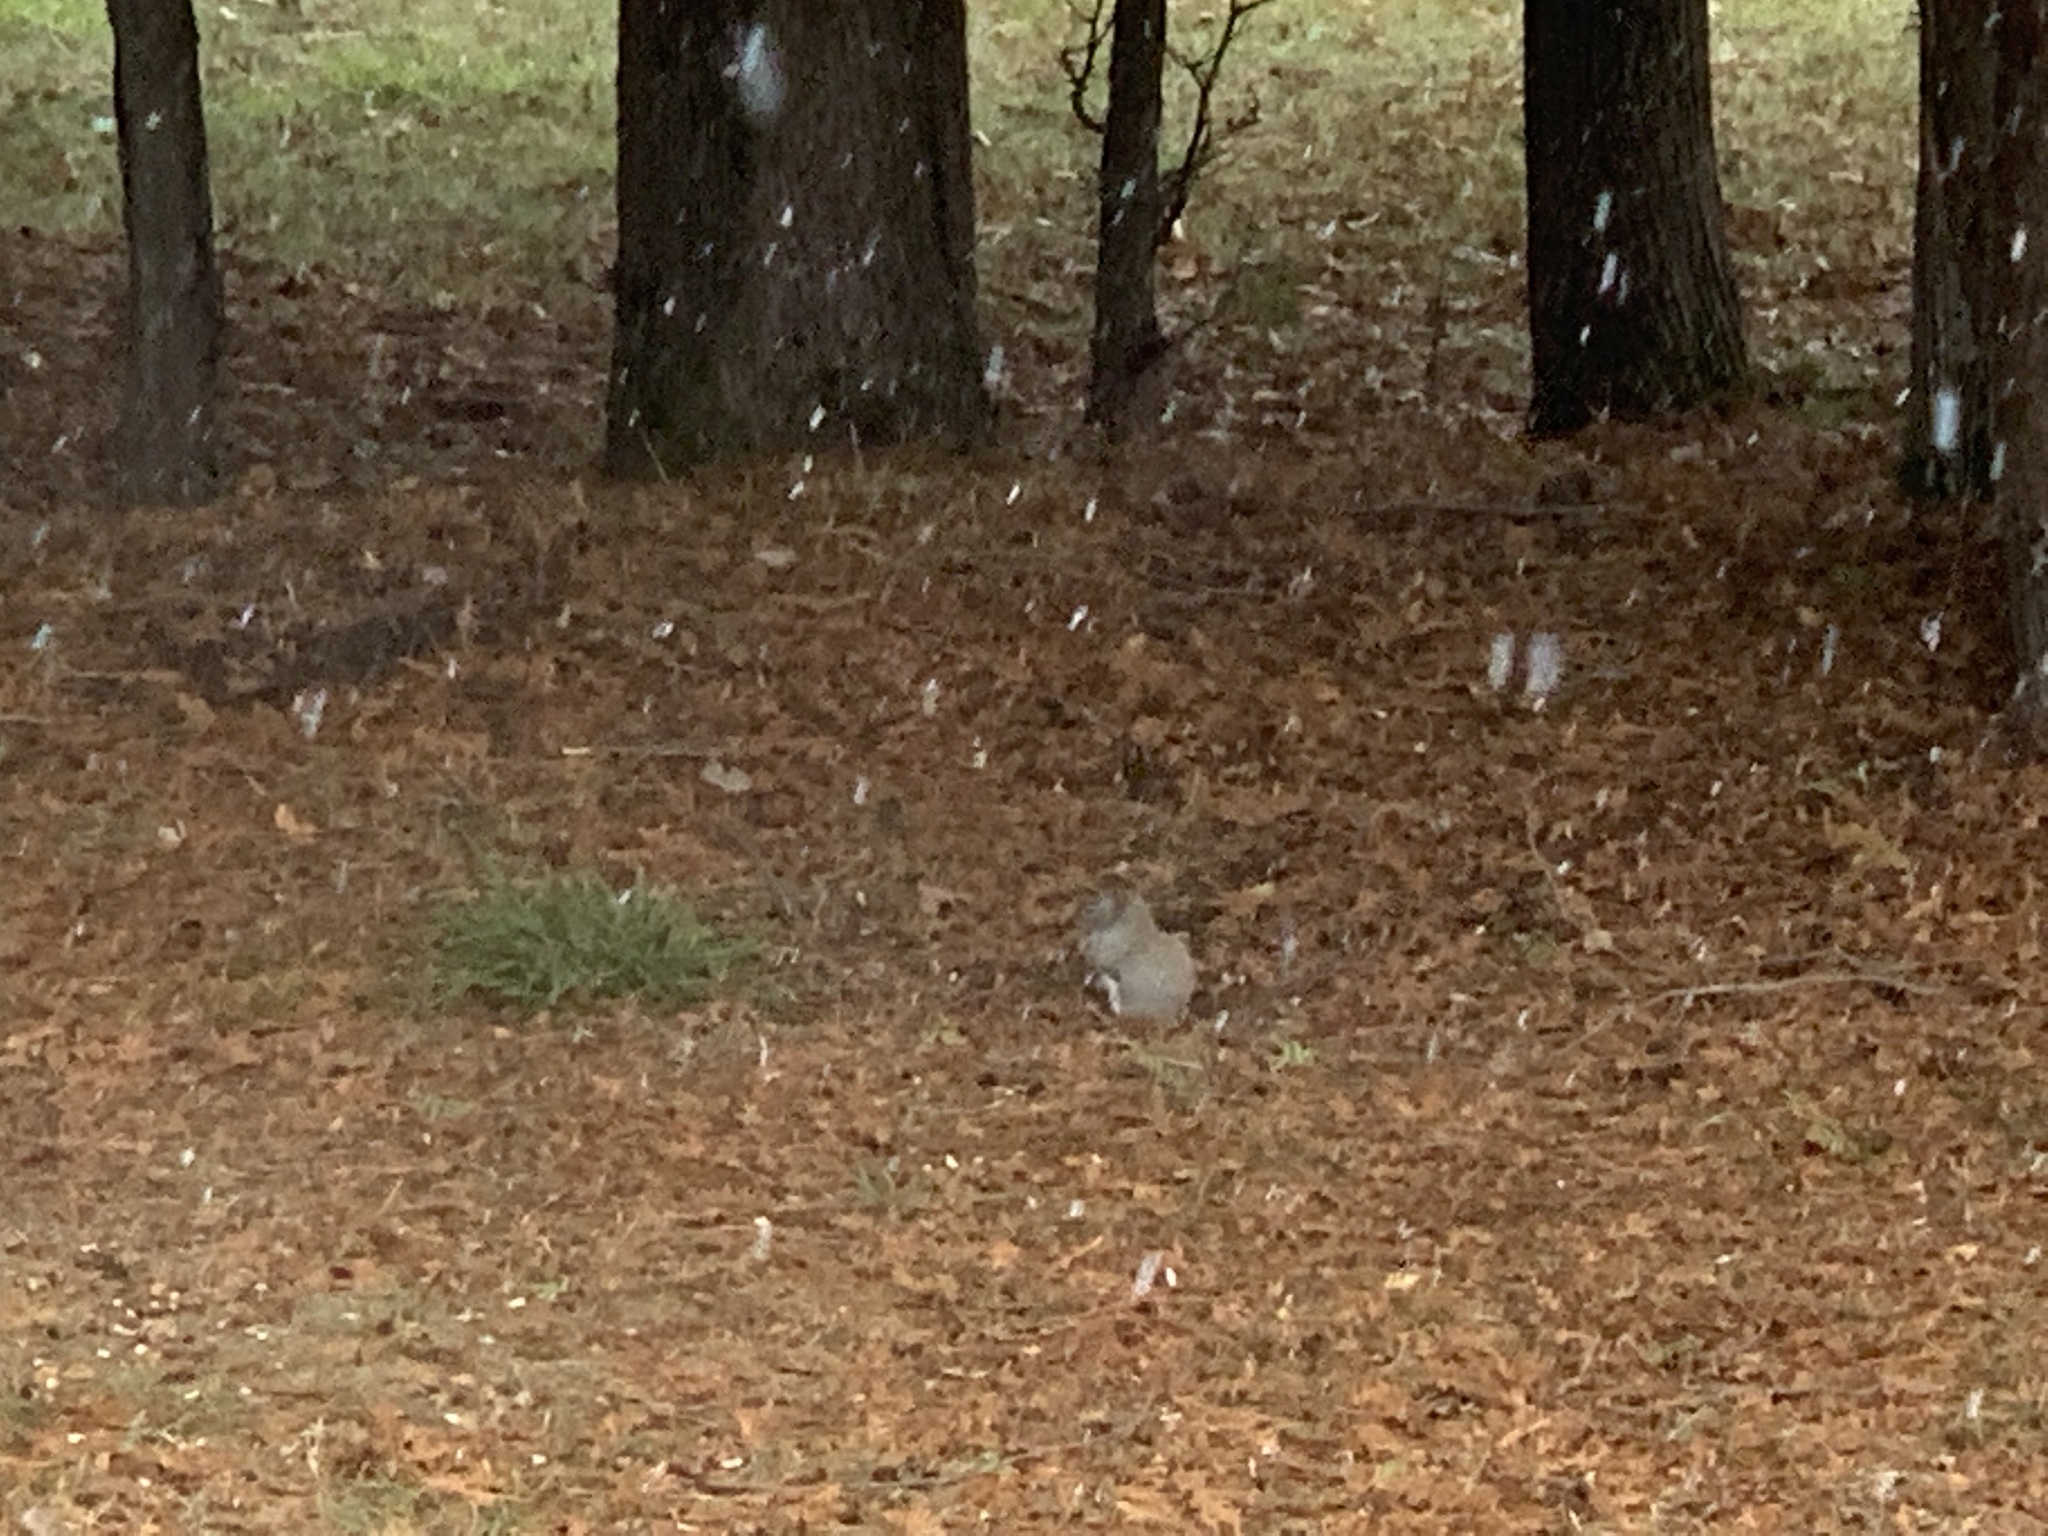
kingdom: Animalia
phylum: Chordata
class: Mammalia
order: Rodentia
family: Sciuridae
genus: Tamiasciurus
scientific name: Tamiasciurus hudsonicus
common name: Red squirrel
